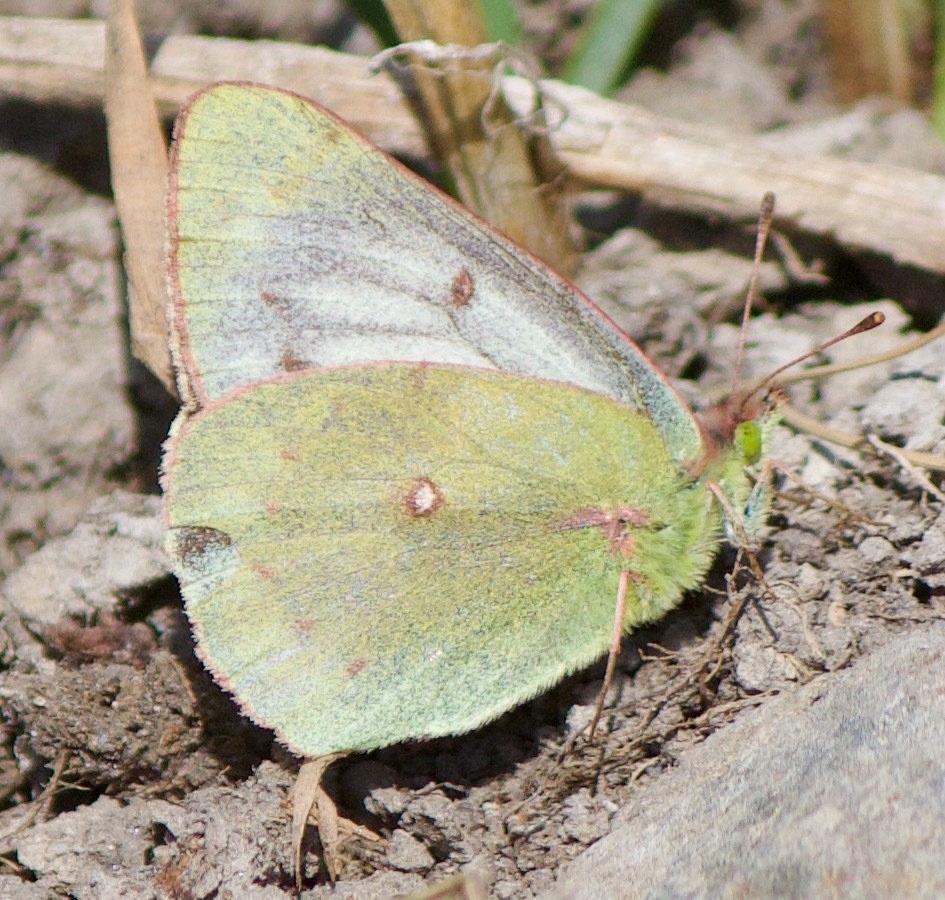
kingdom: Animalia
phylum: Arthropoda
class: Insecta
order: Lepidoptera
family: Pieridae
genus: Colias
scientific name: Colias vauthierii
